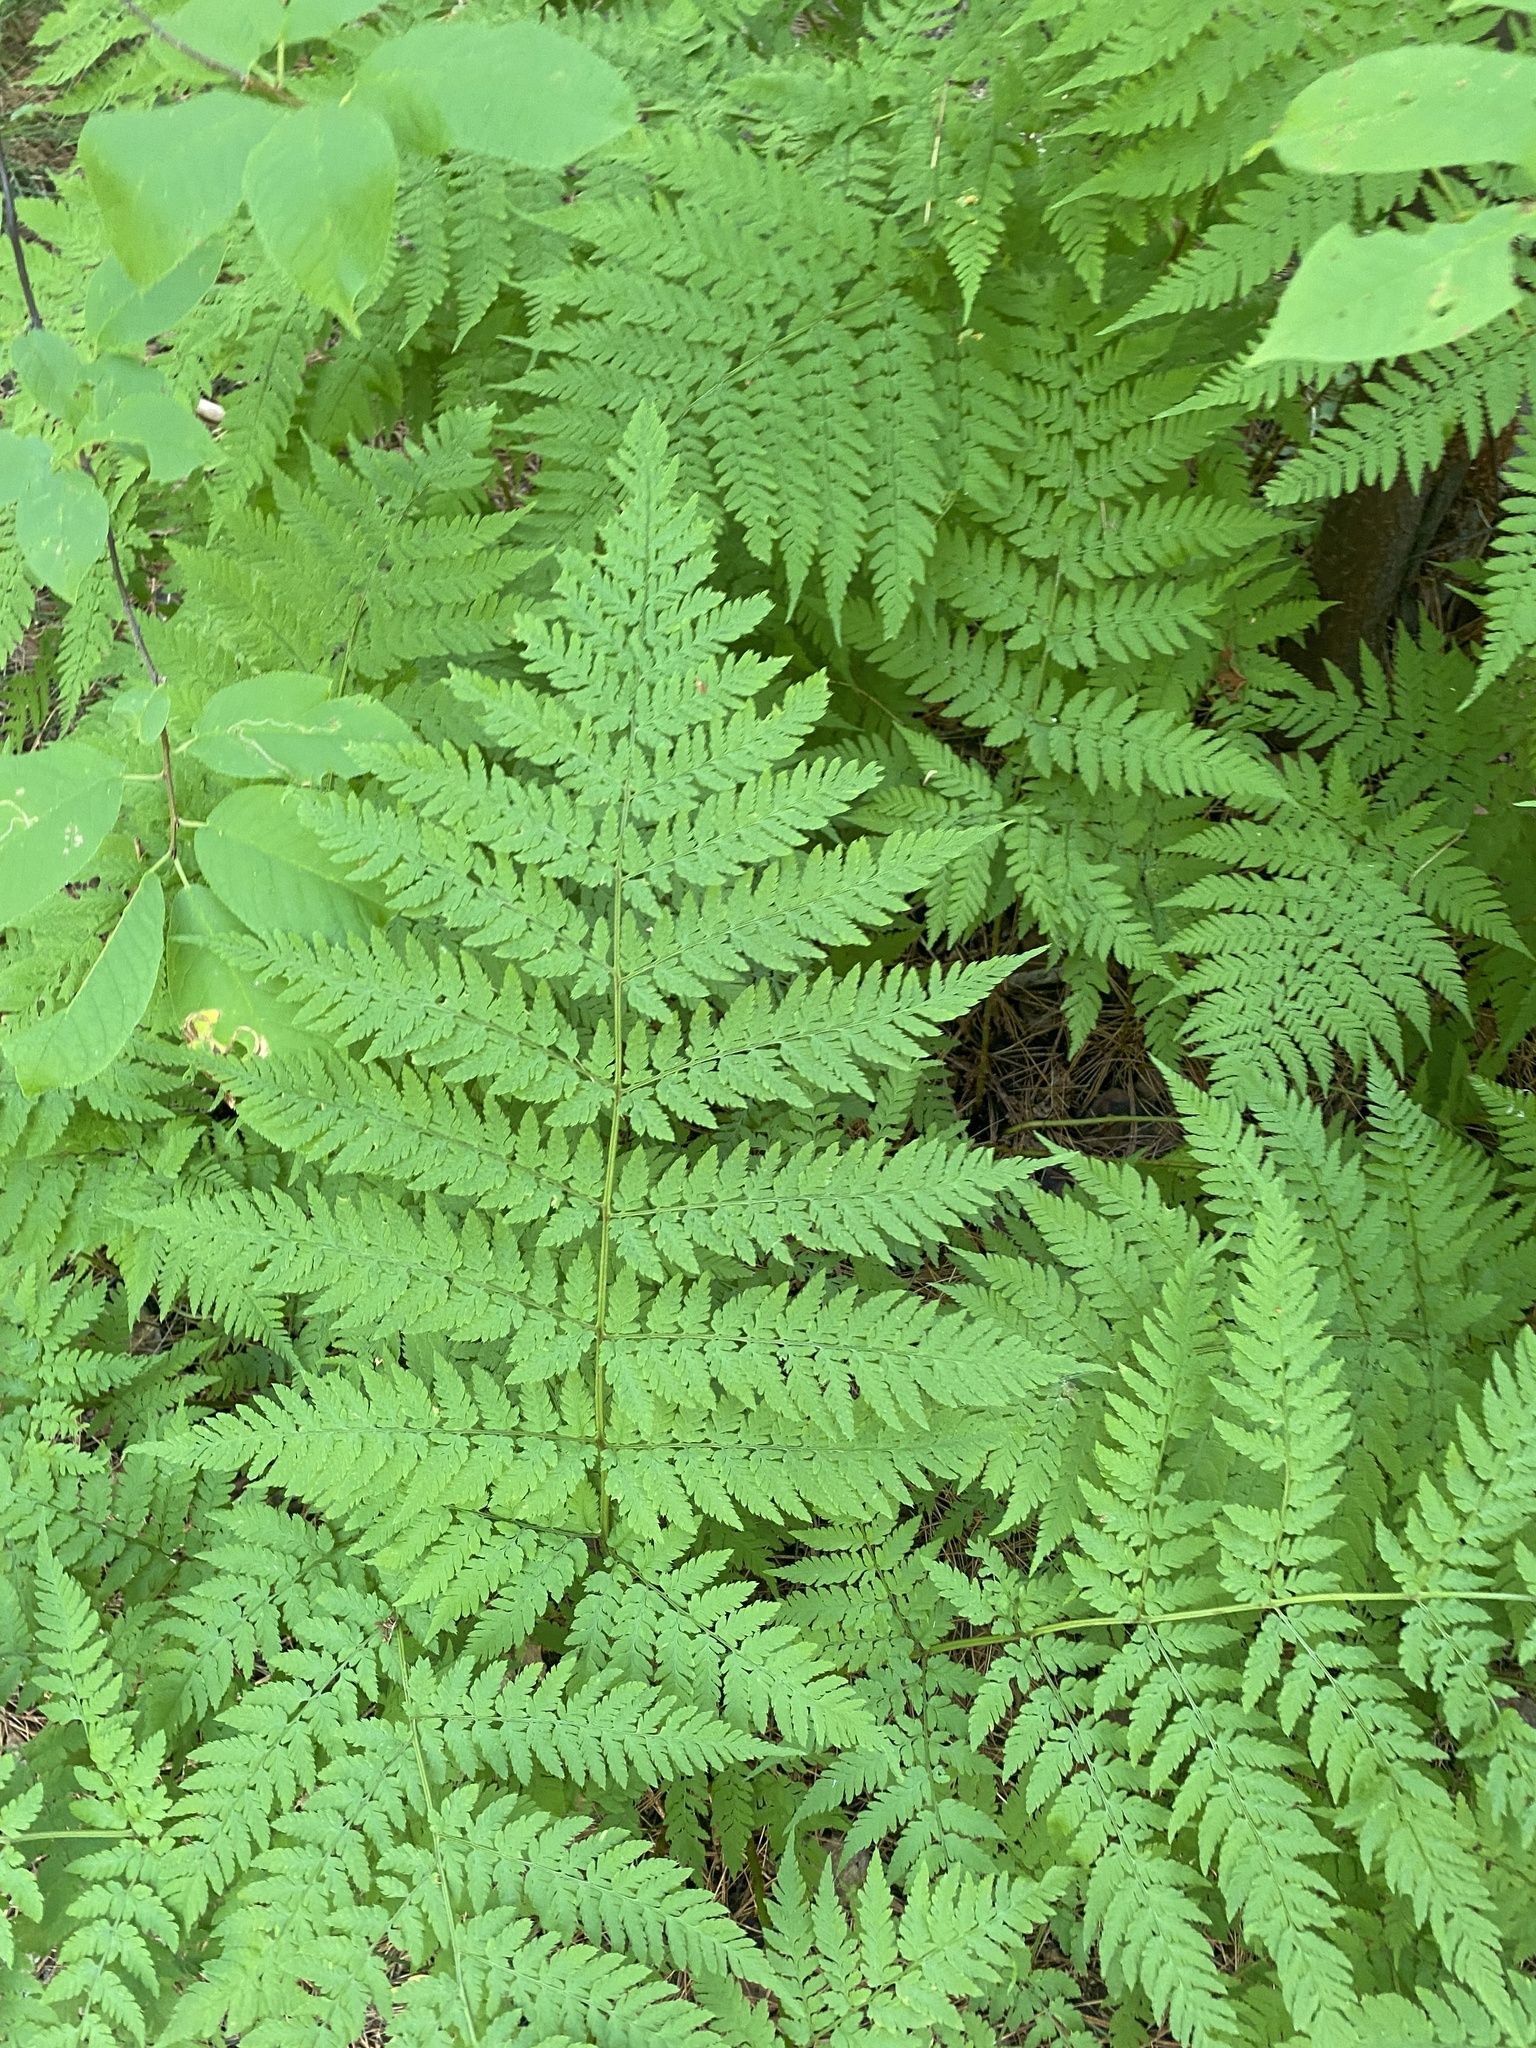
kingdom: Plantae
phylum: Tracheophyta
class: Polypodiopsida
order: Polypodiales
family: Dryopteridaceae
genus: Dryopteris
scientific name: Dryopteris expansa
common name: Northern buckler fern
